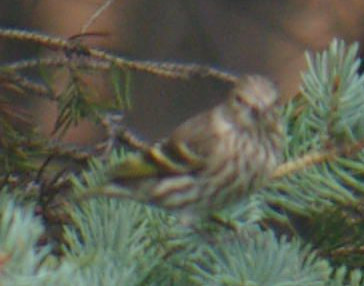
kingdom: Animalia
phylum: Chordata
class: Aves
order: Passeriformes
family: Fringillidae
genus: Spinus
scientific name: Spinus pinus
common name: Pine siskin
